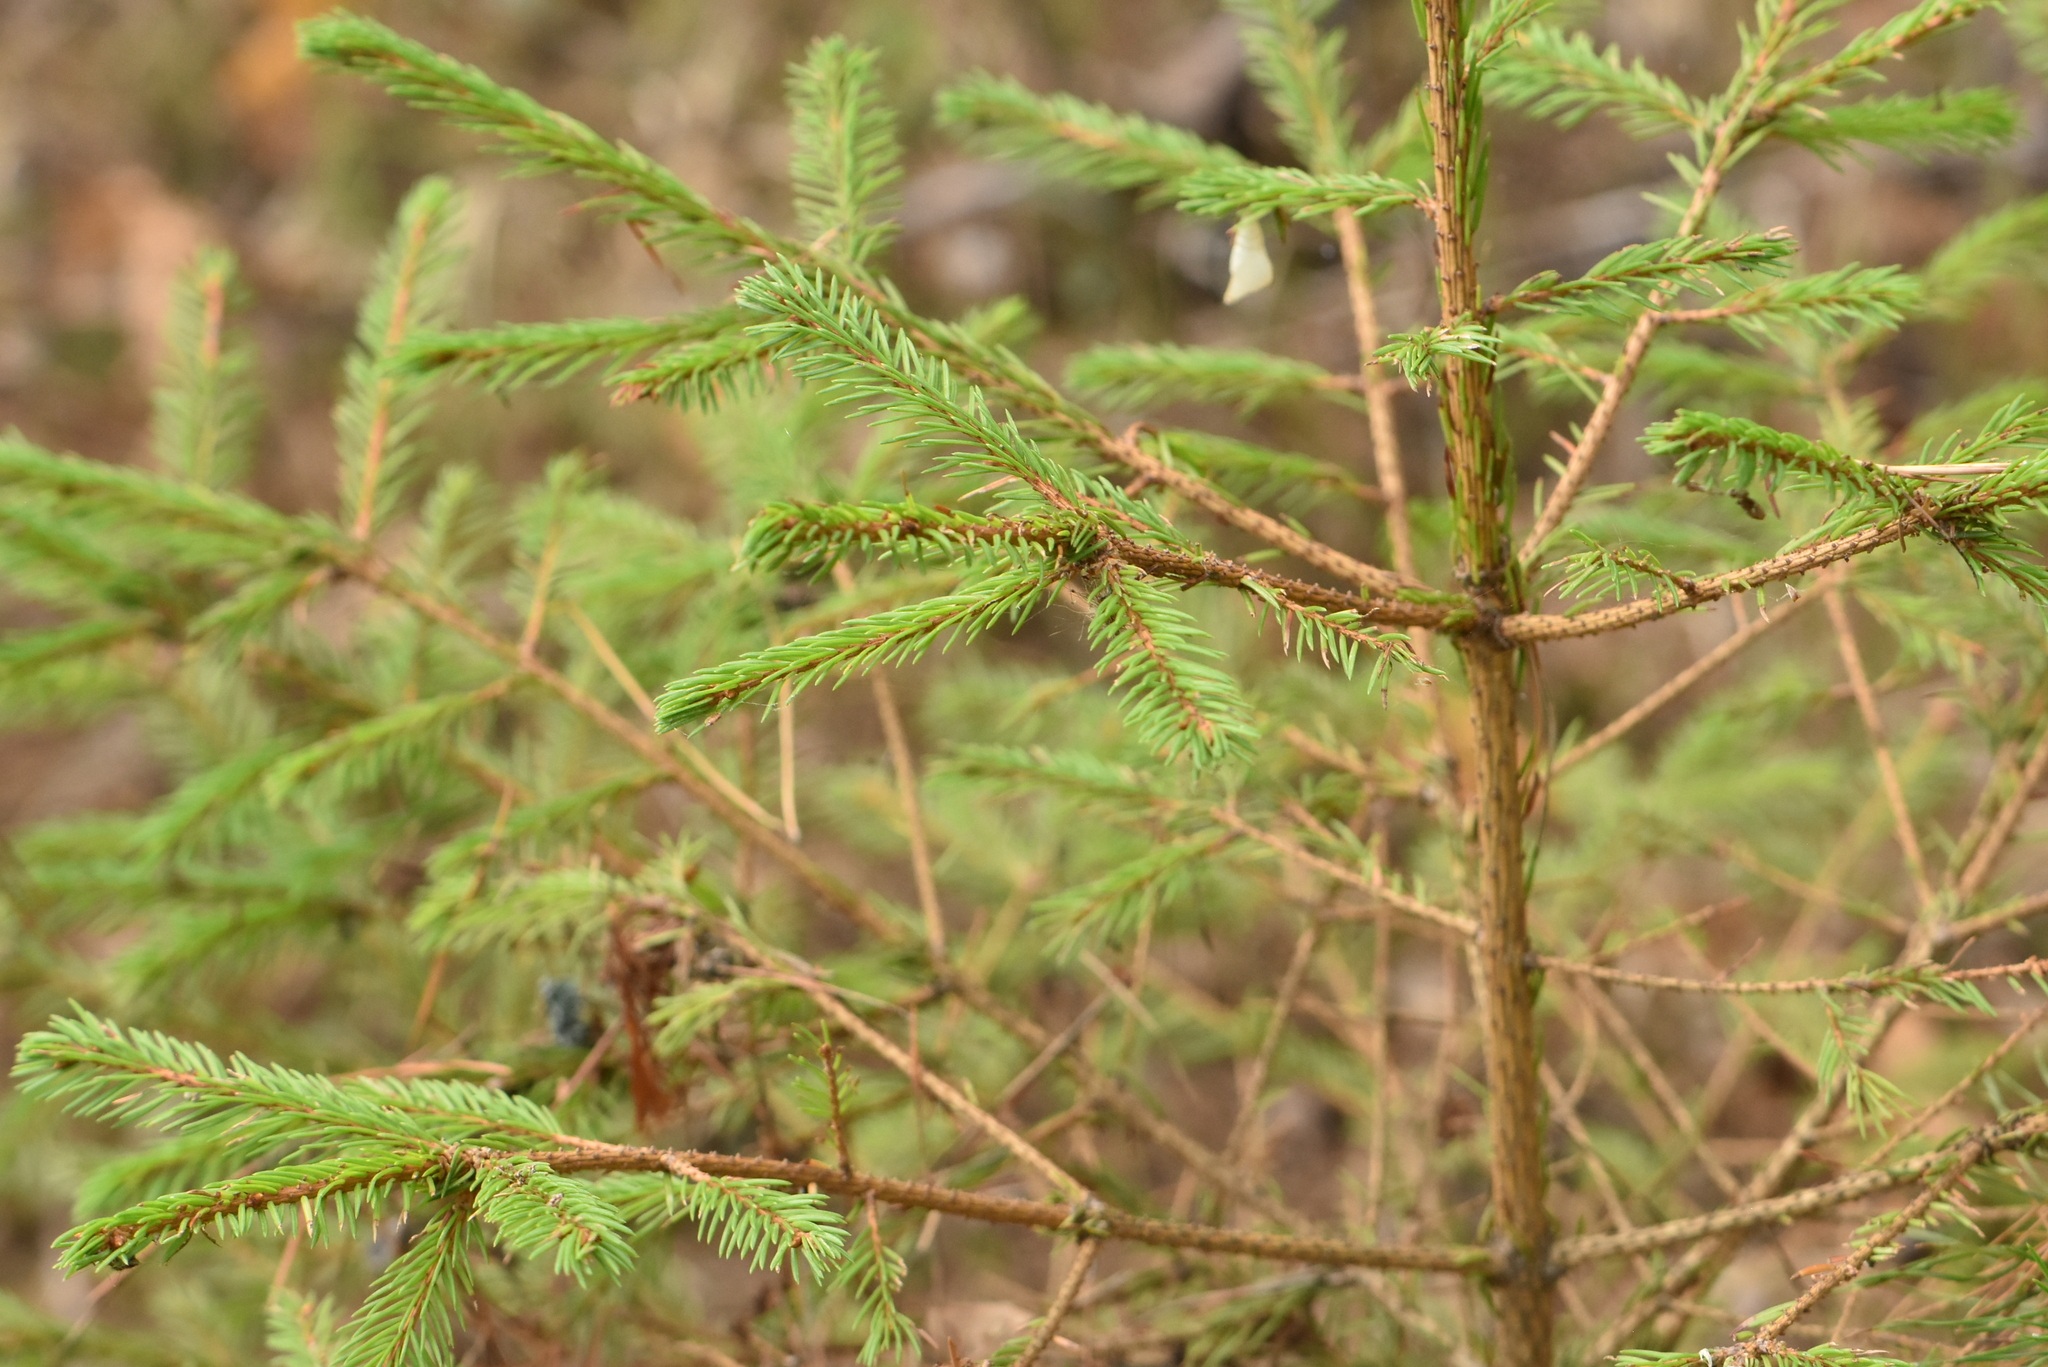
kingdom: Plantae
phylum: Tracheophyta
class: Pinopsida
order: Pinales
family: Pinaceae
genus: Picea
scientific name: Picea abies
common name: Norway spruce
